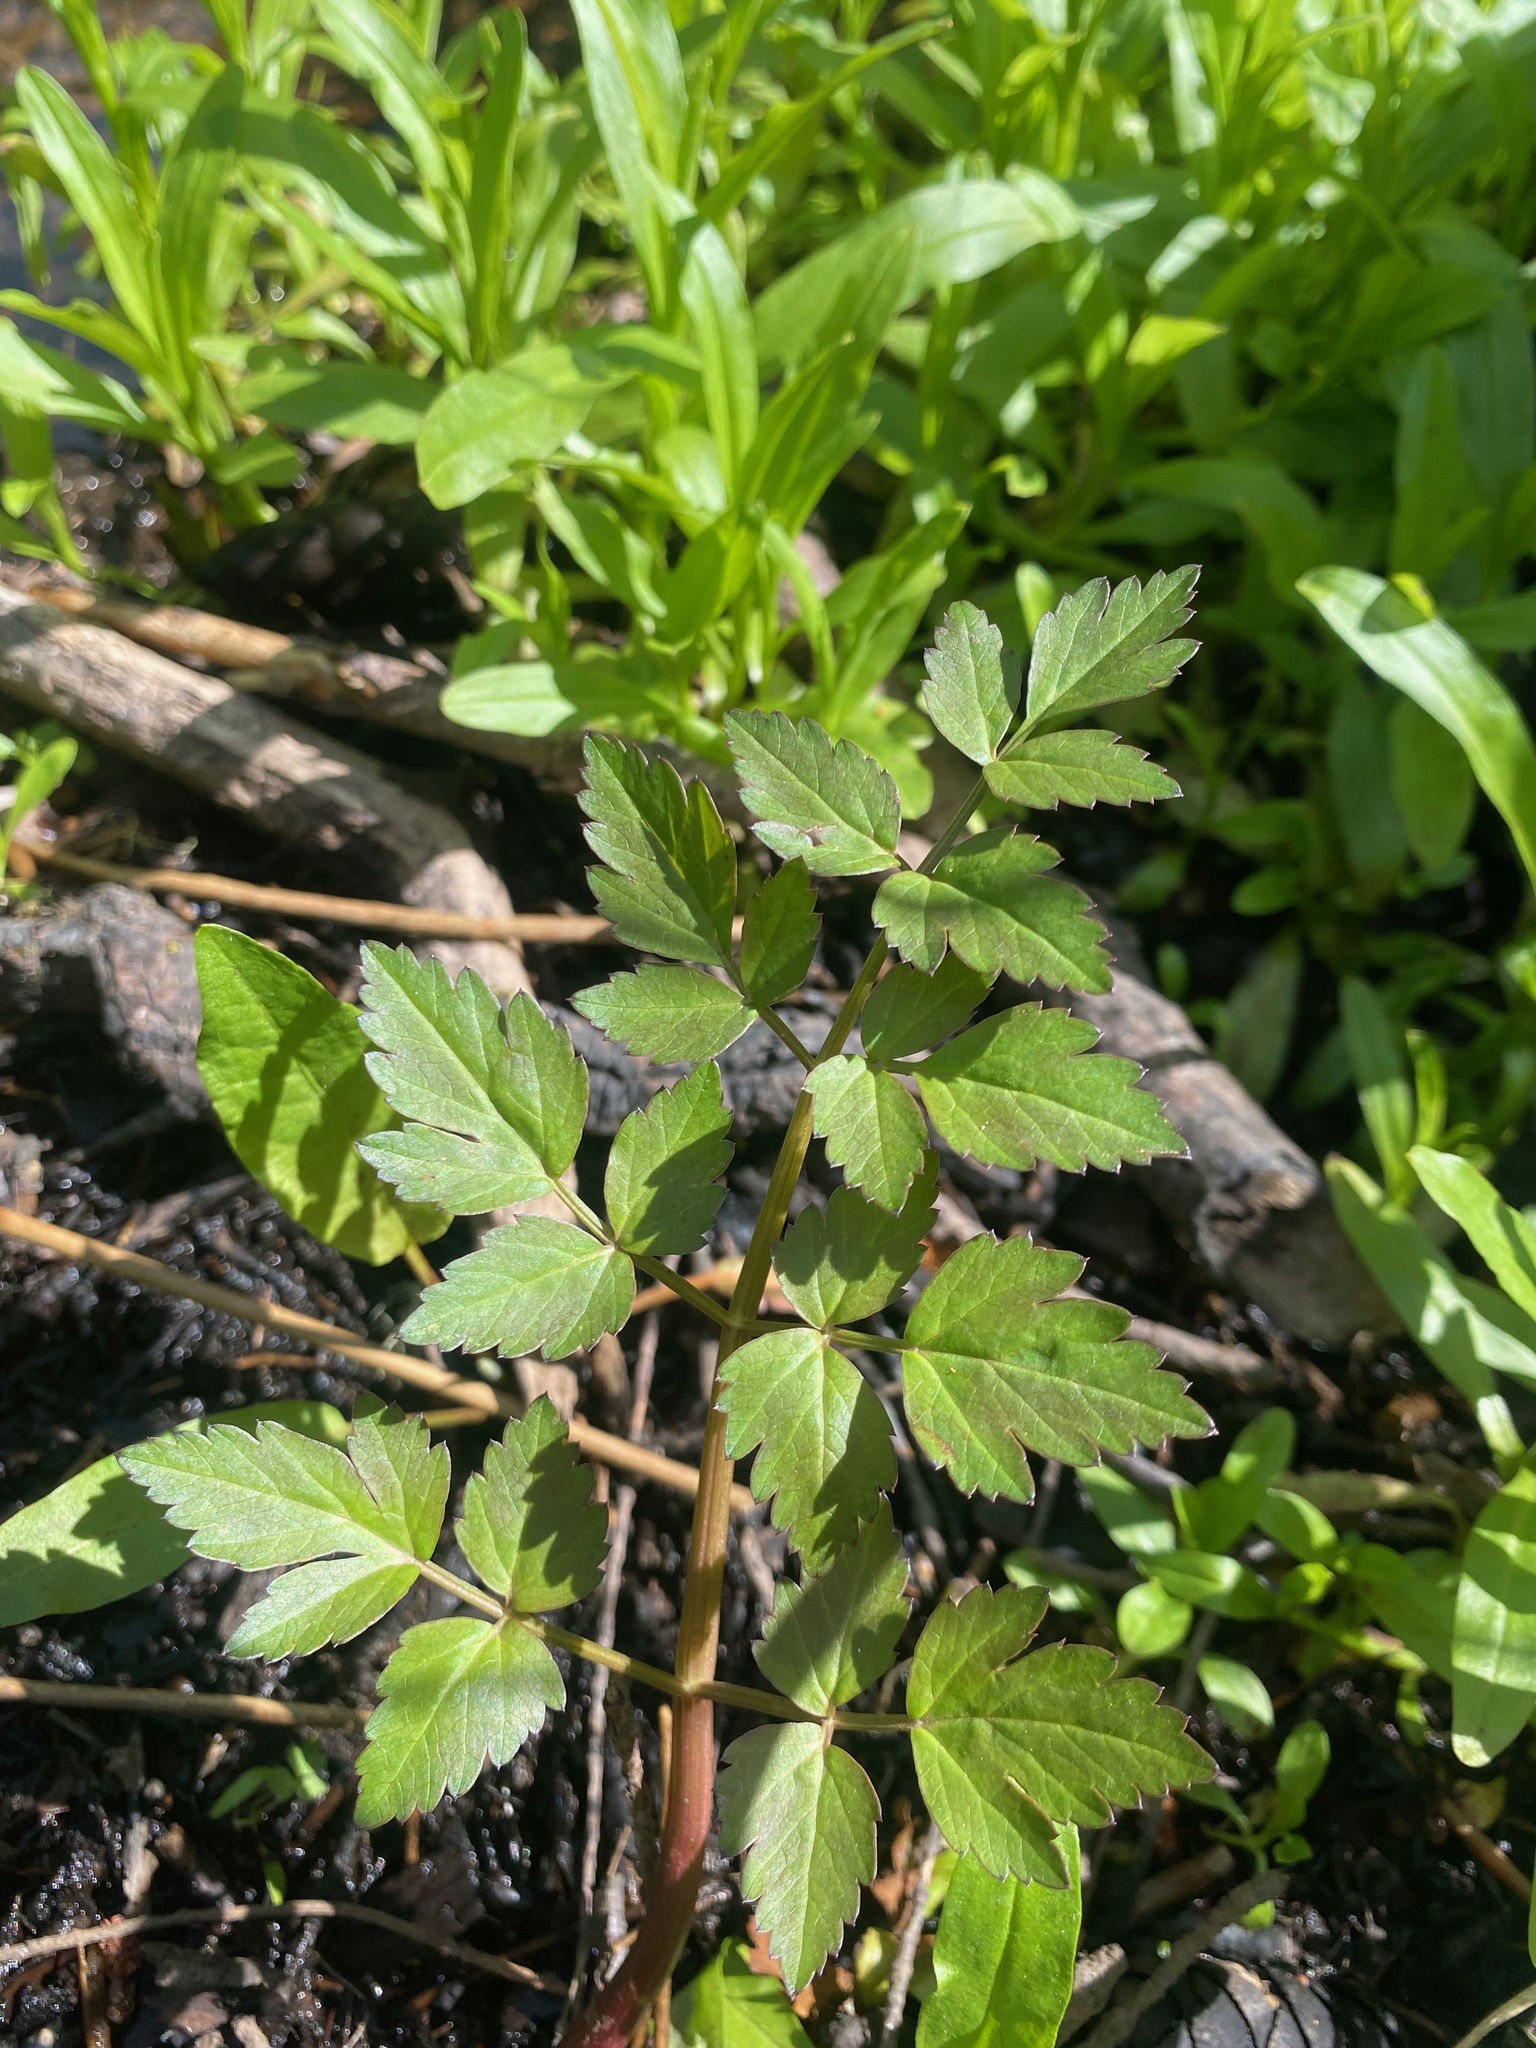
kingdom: Plantae
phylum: Tracheophyta
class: Magnoliopsida
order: Apiales
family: Apiaceae
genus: Oenanthe
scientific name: Oenanthe sarmentosa
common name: American water-parsley
